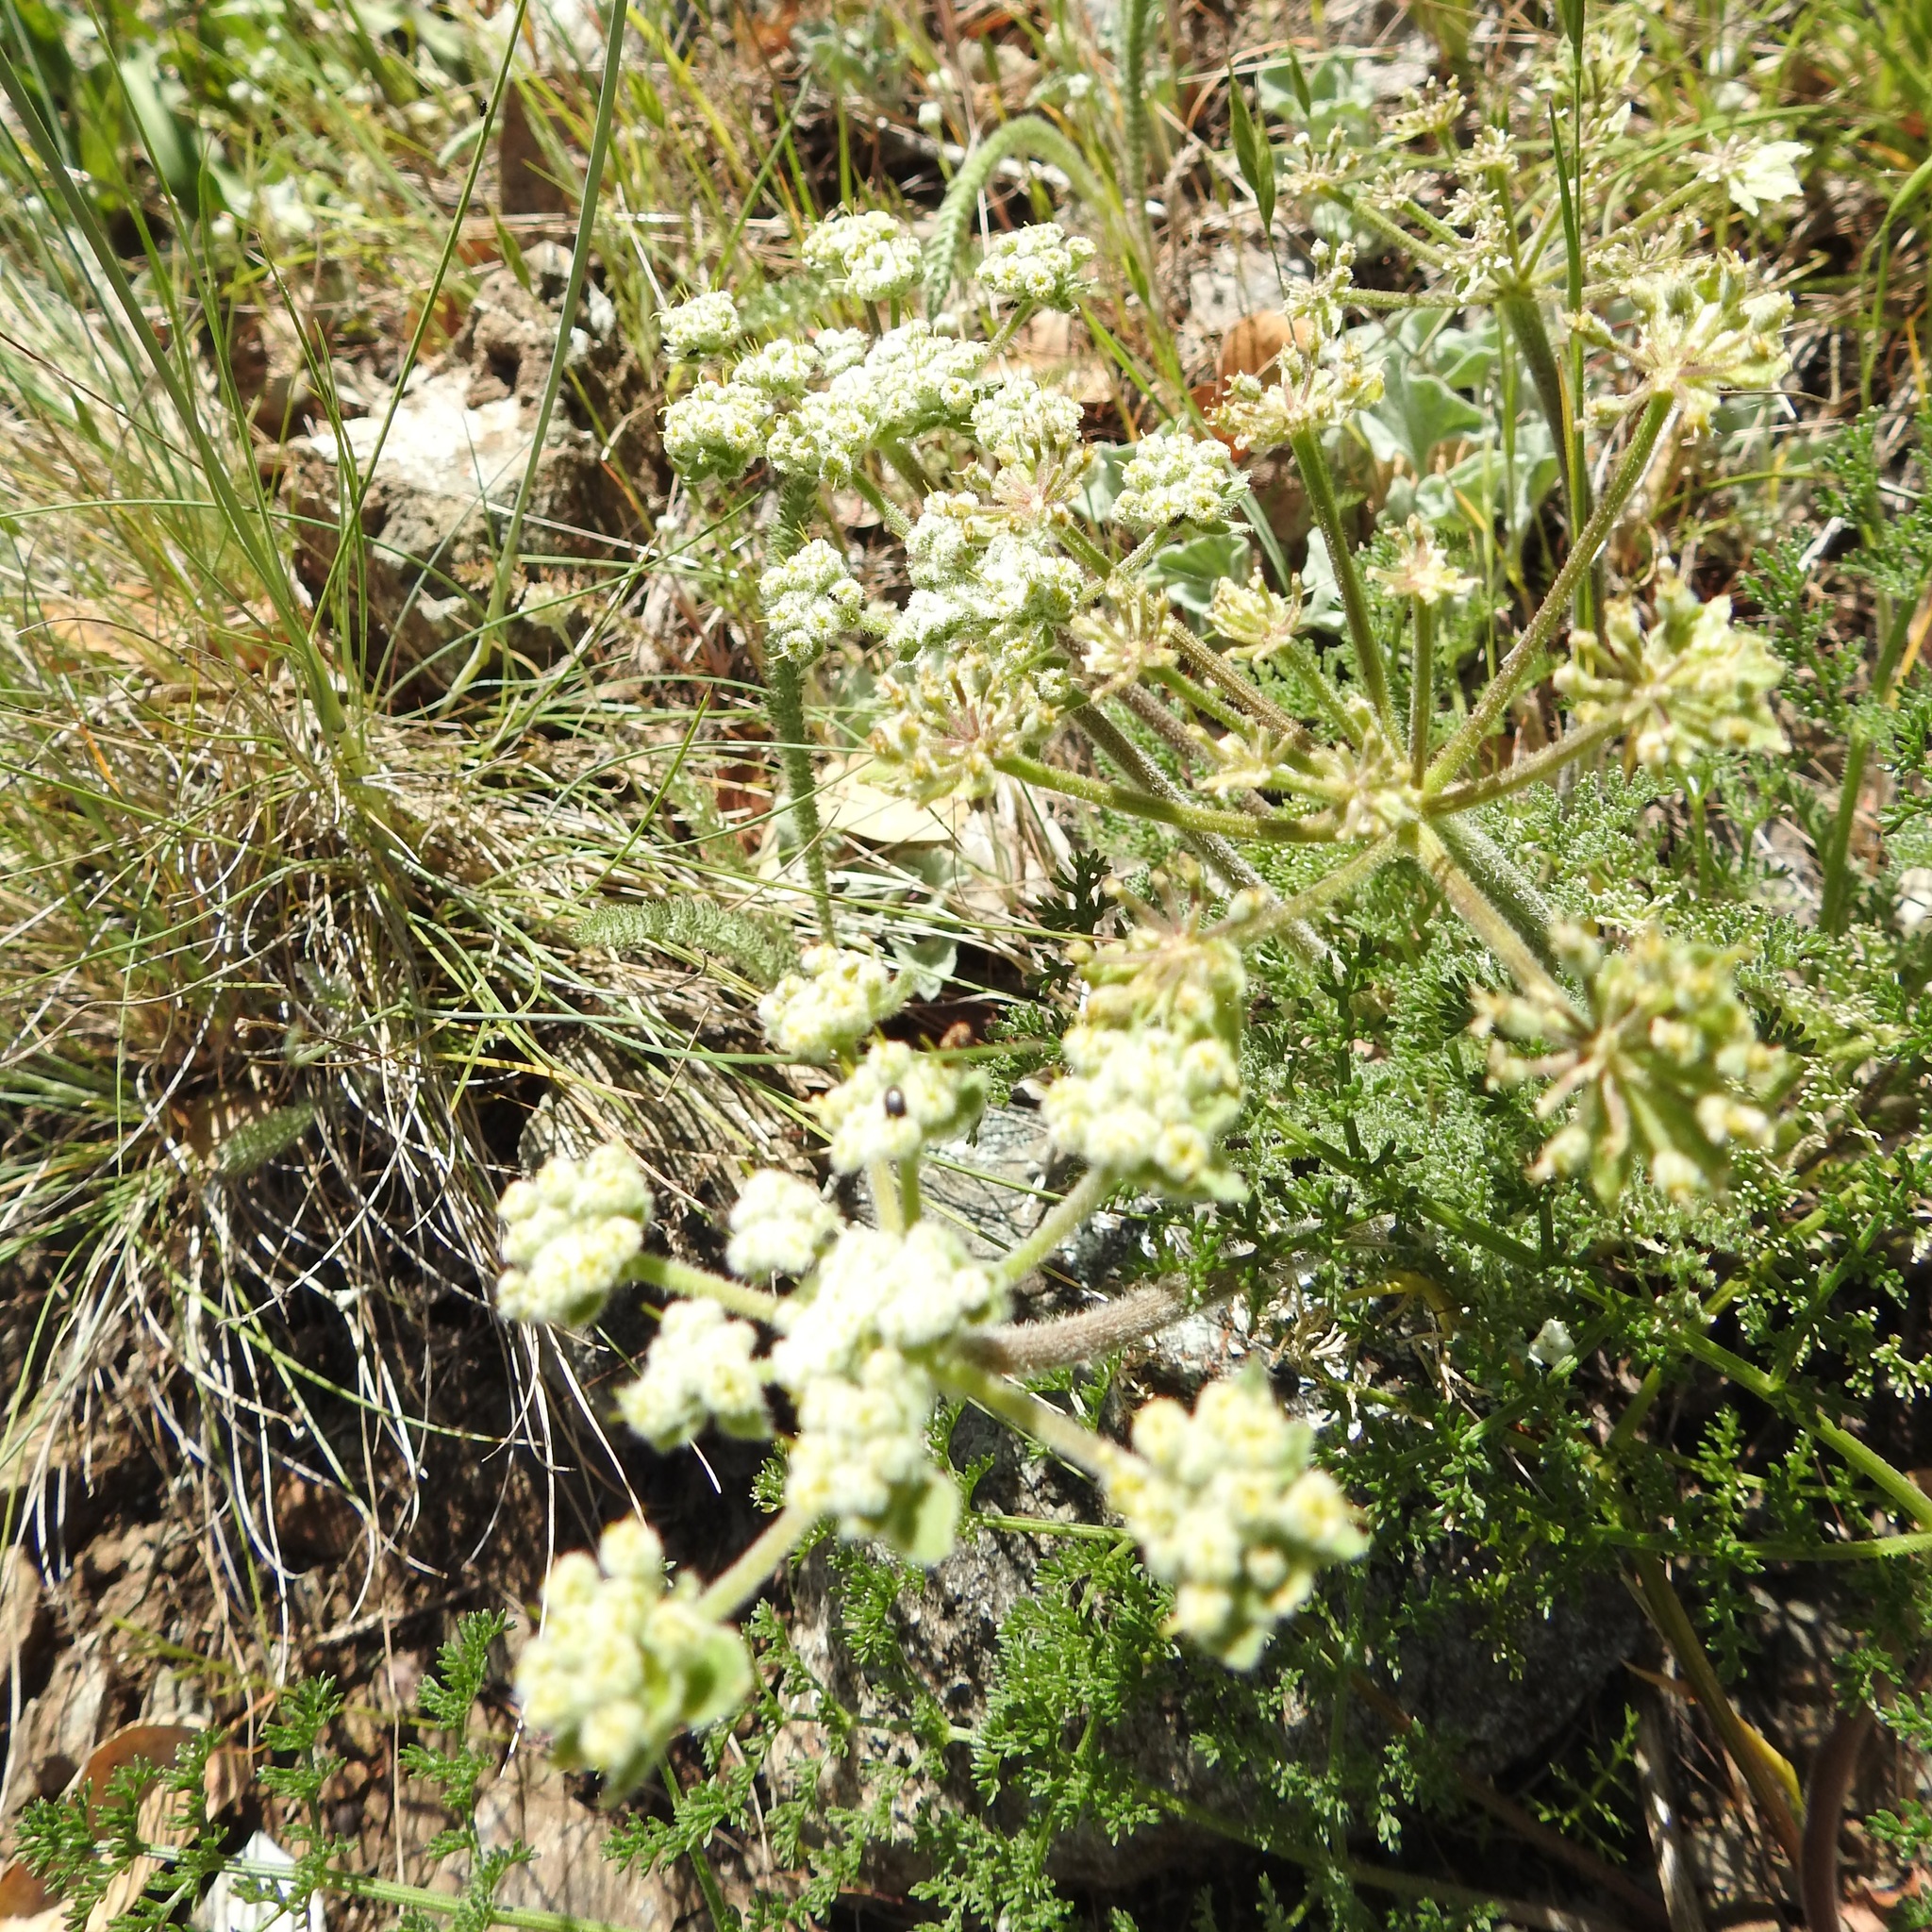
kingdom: Plantae
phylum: Tracheophyta
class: Magnoliopsida
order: Apiales
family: Apiaceae
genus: Lomatium
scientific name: Lomatium dasycarpum
